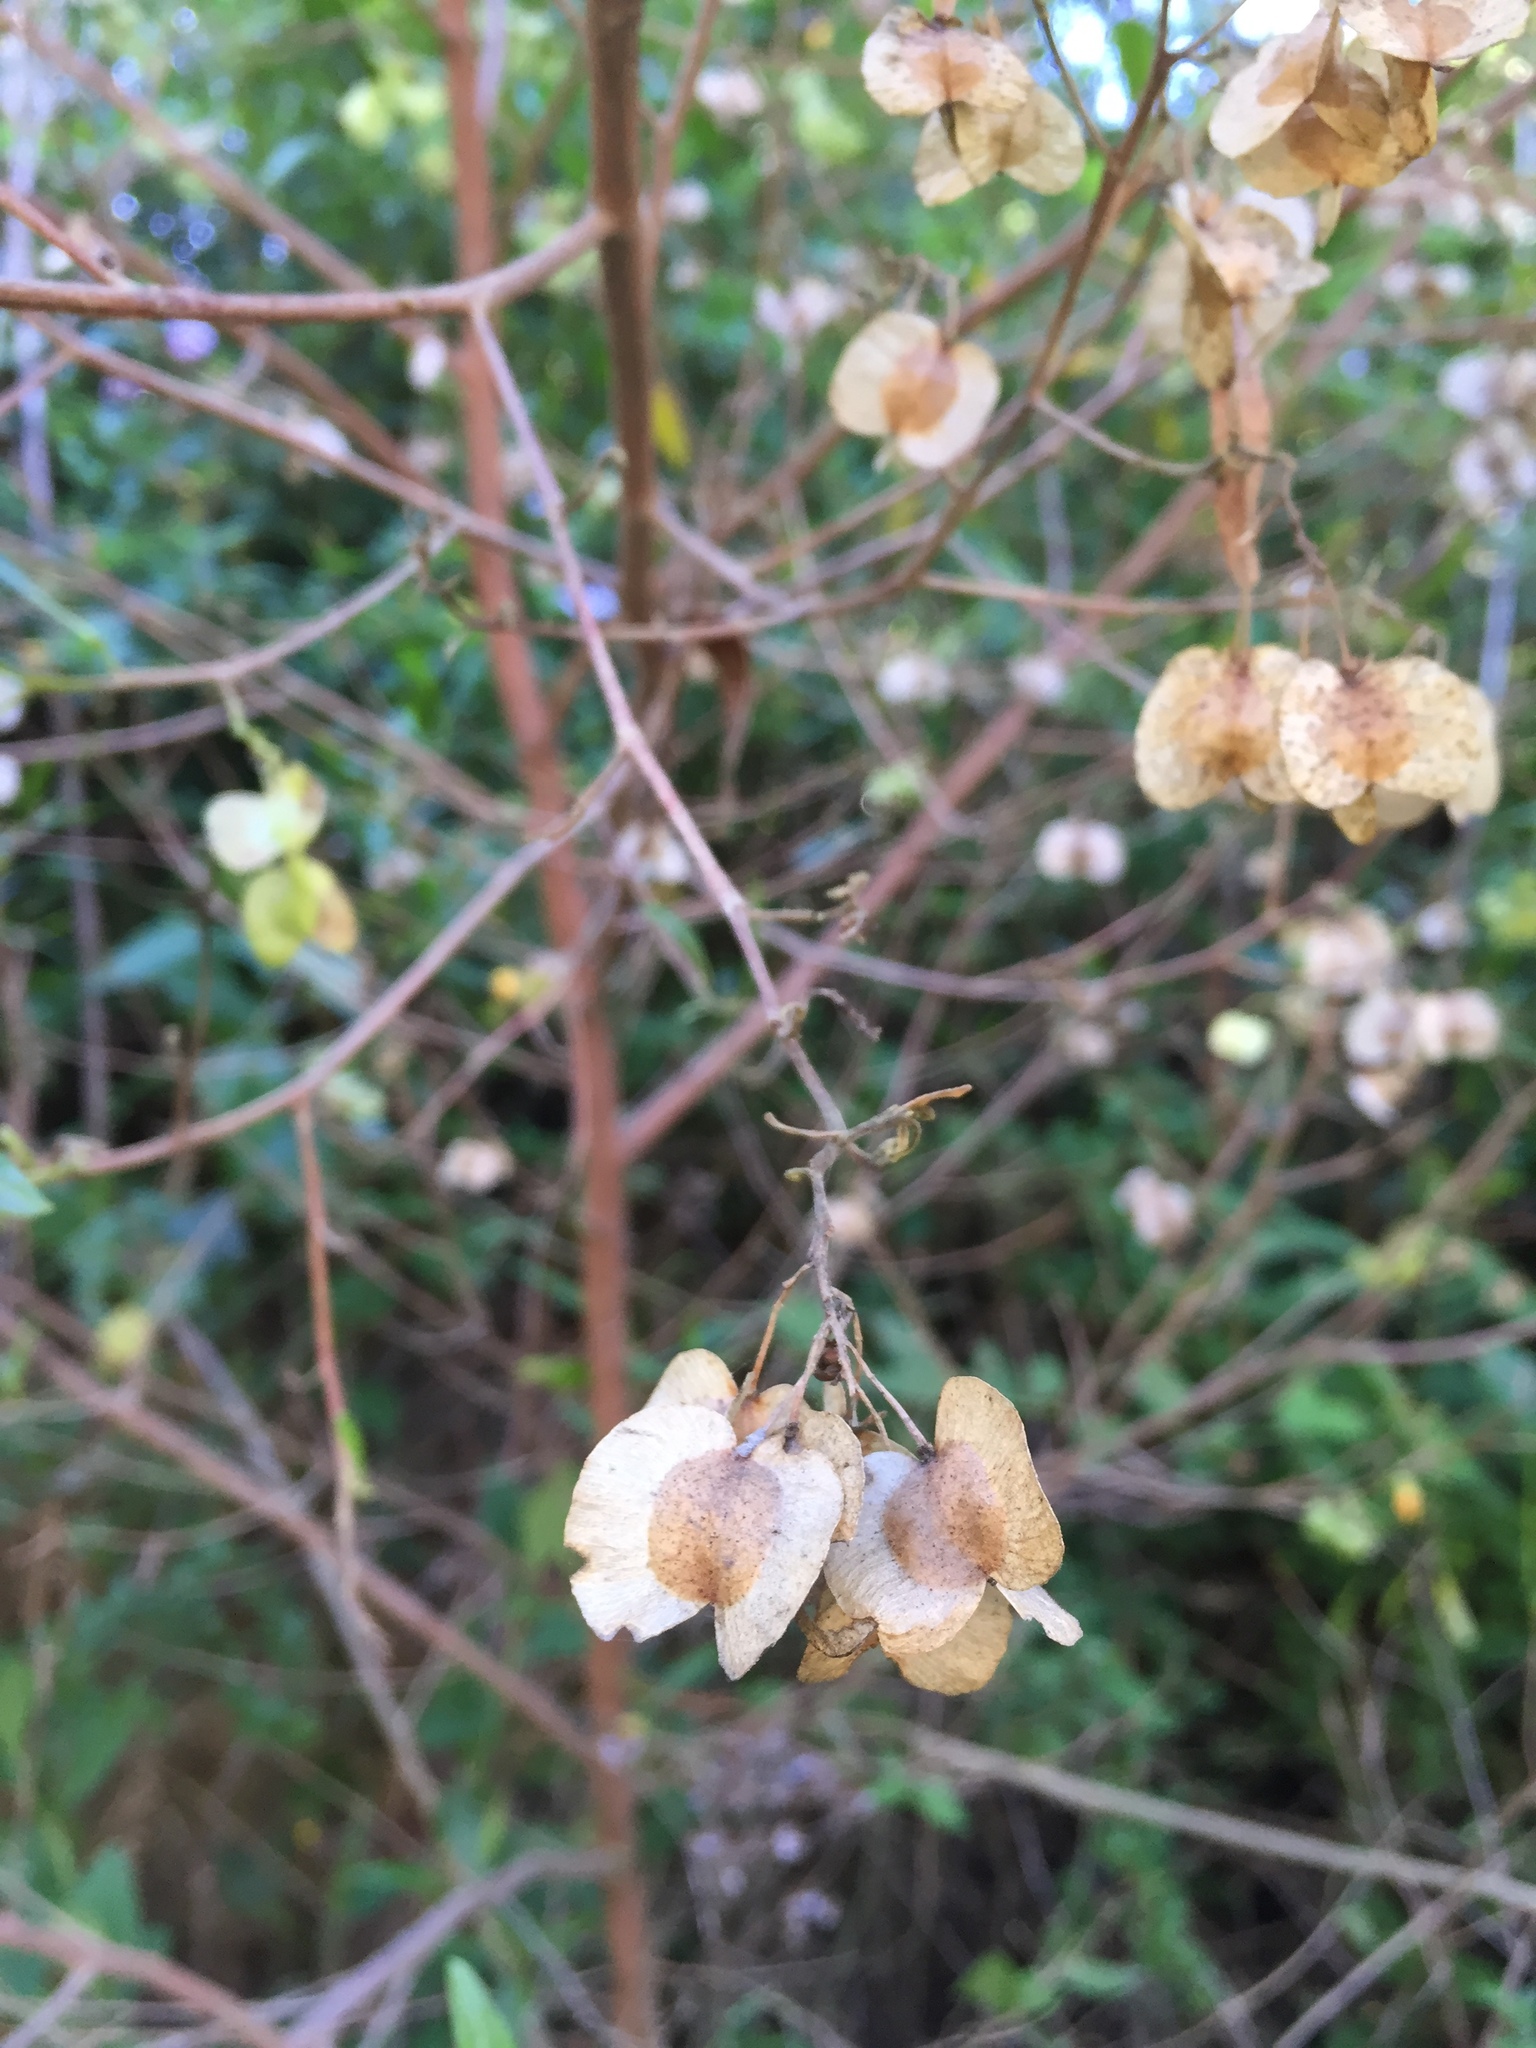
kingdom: Plantae
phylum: Tracheophyta
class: Magnoliopsida
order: Sapindales
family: Sapindaceae
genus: Dodonaea
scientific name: Dodonaea viscosa
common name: Hopbush
